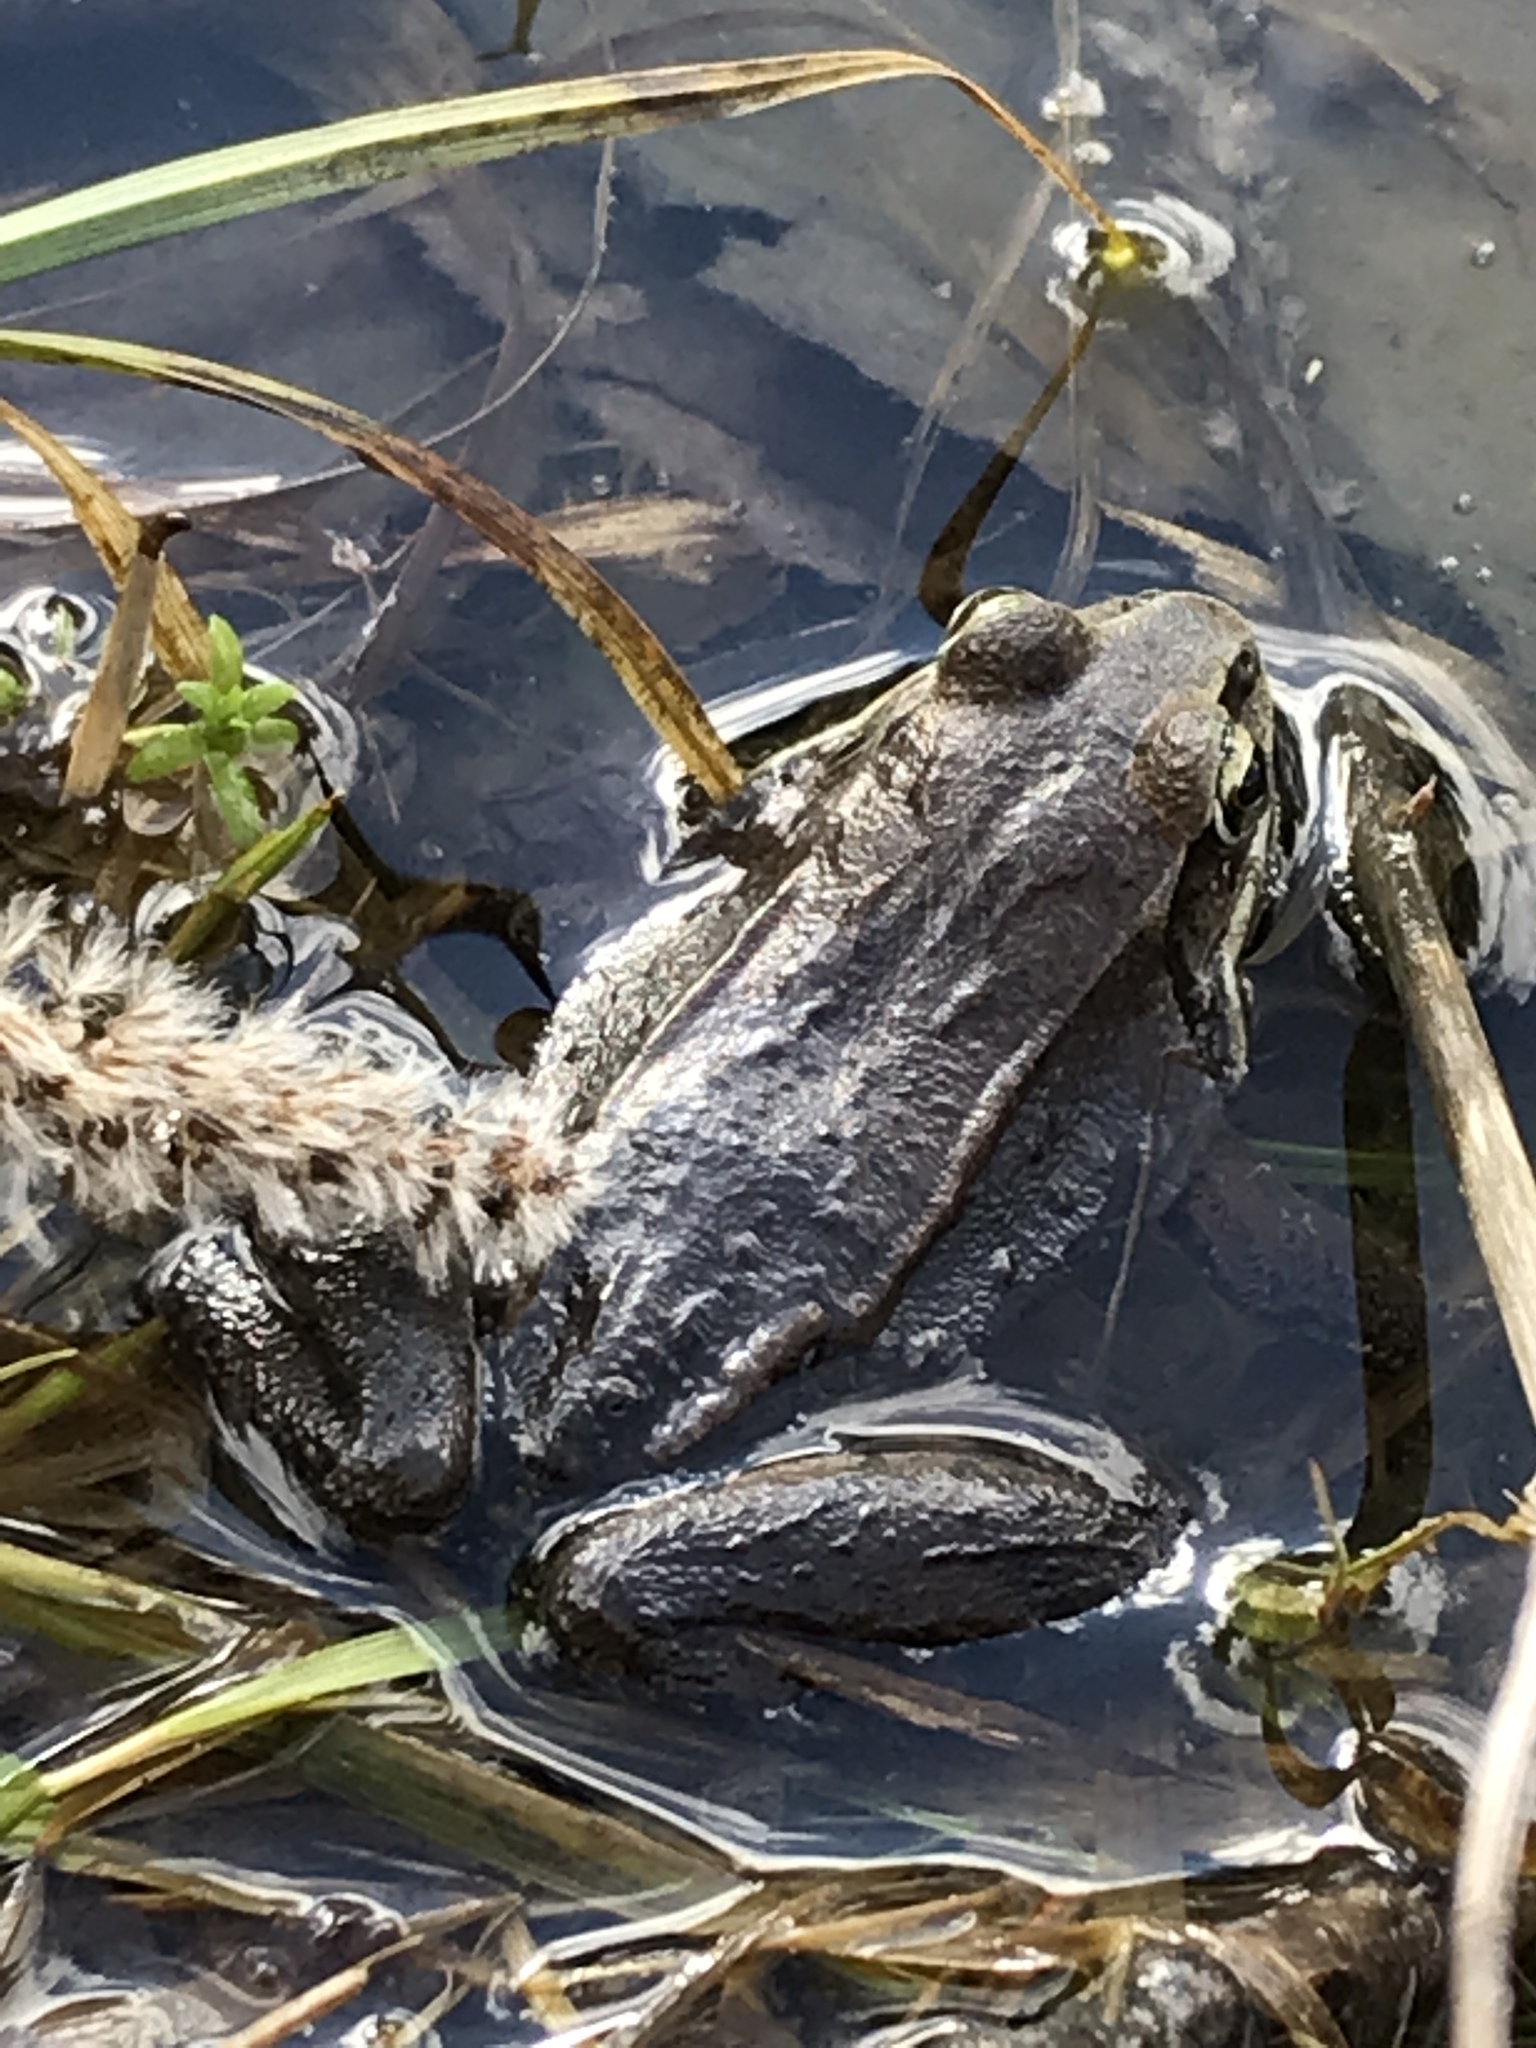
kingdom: Animalia
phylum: Chordata
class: Amphibia
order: Anura
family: Ranidae
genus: Lithobates
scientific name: Lithobates sylvaticus
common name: Wood frog
